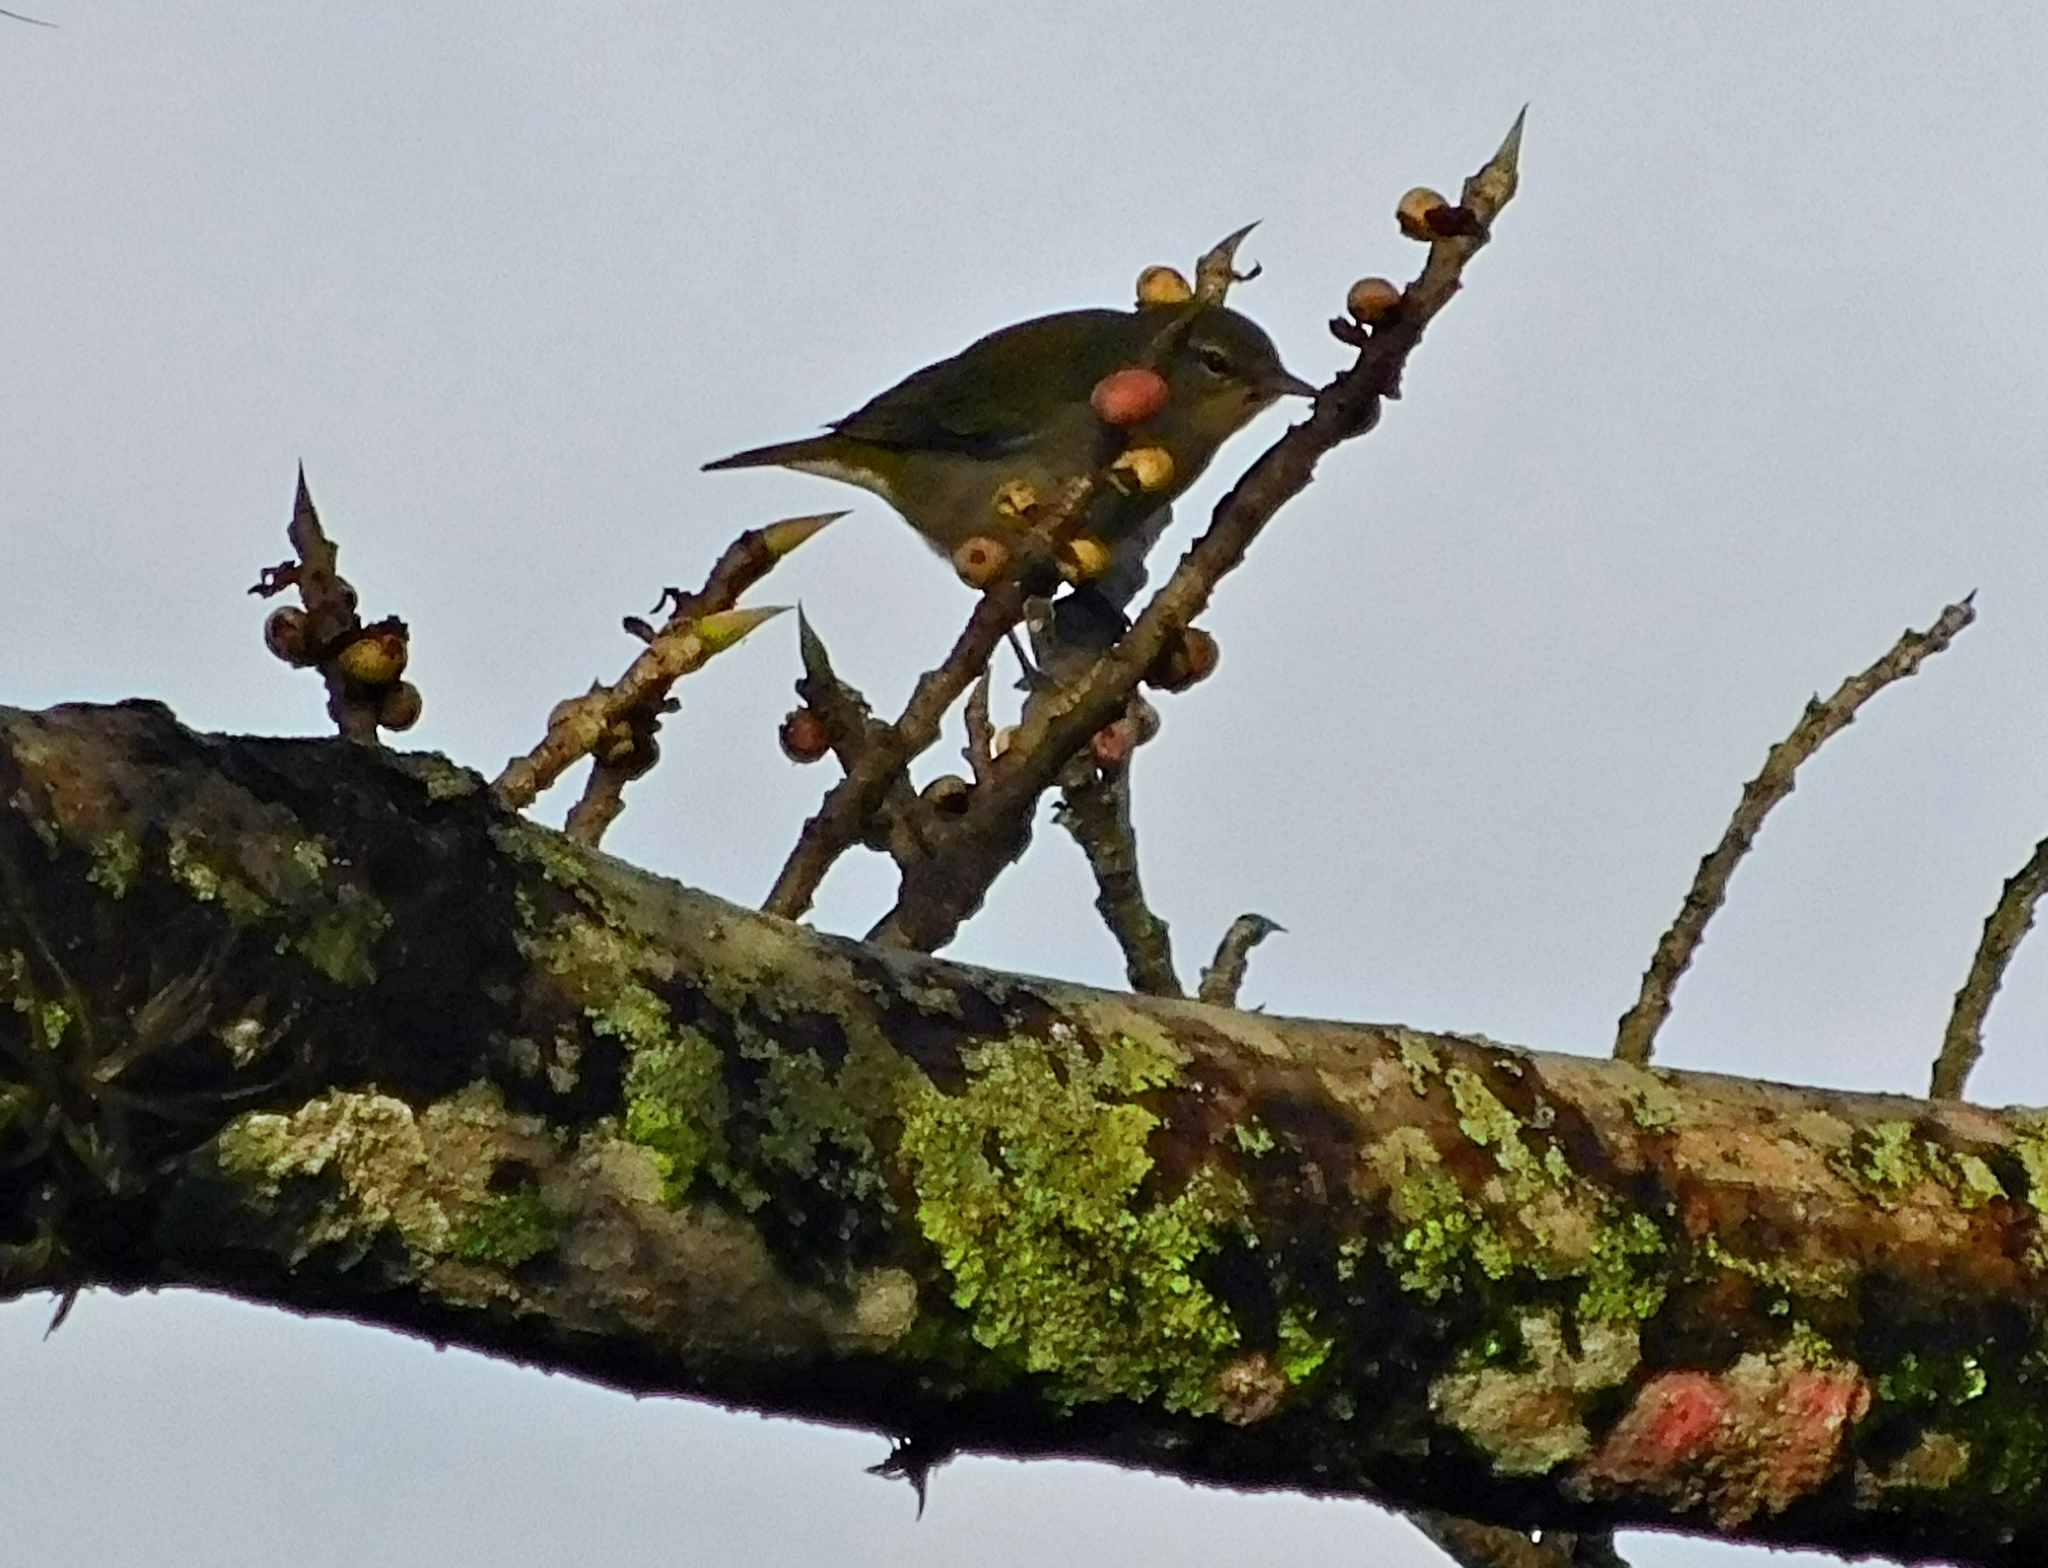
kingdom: Animalia
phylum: Chordata
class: Aves
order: Passeriformes
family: Parulidae
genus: Leiothlypis
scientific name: Leiothlypis peregrina
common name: Tennessee warbler
